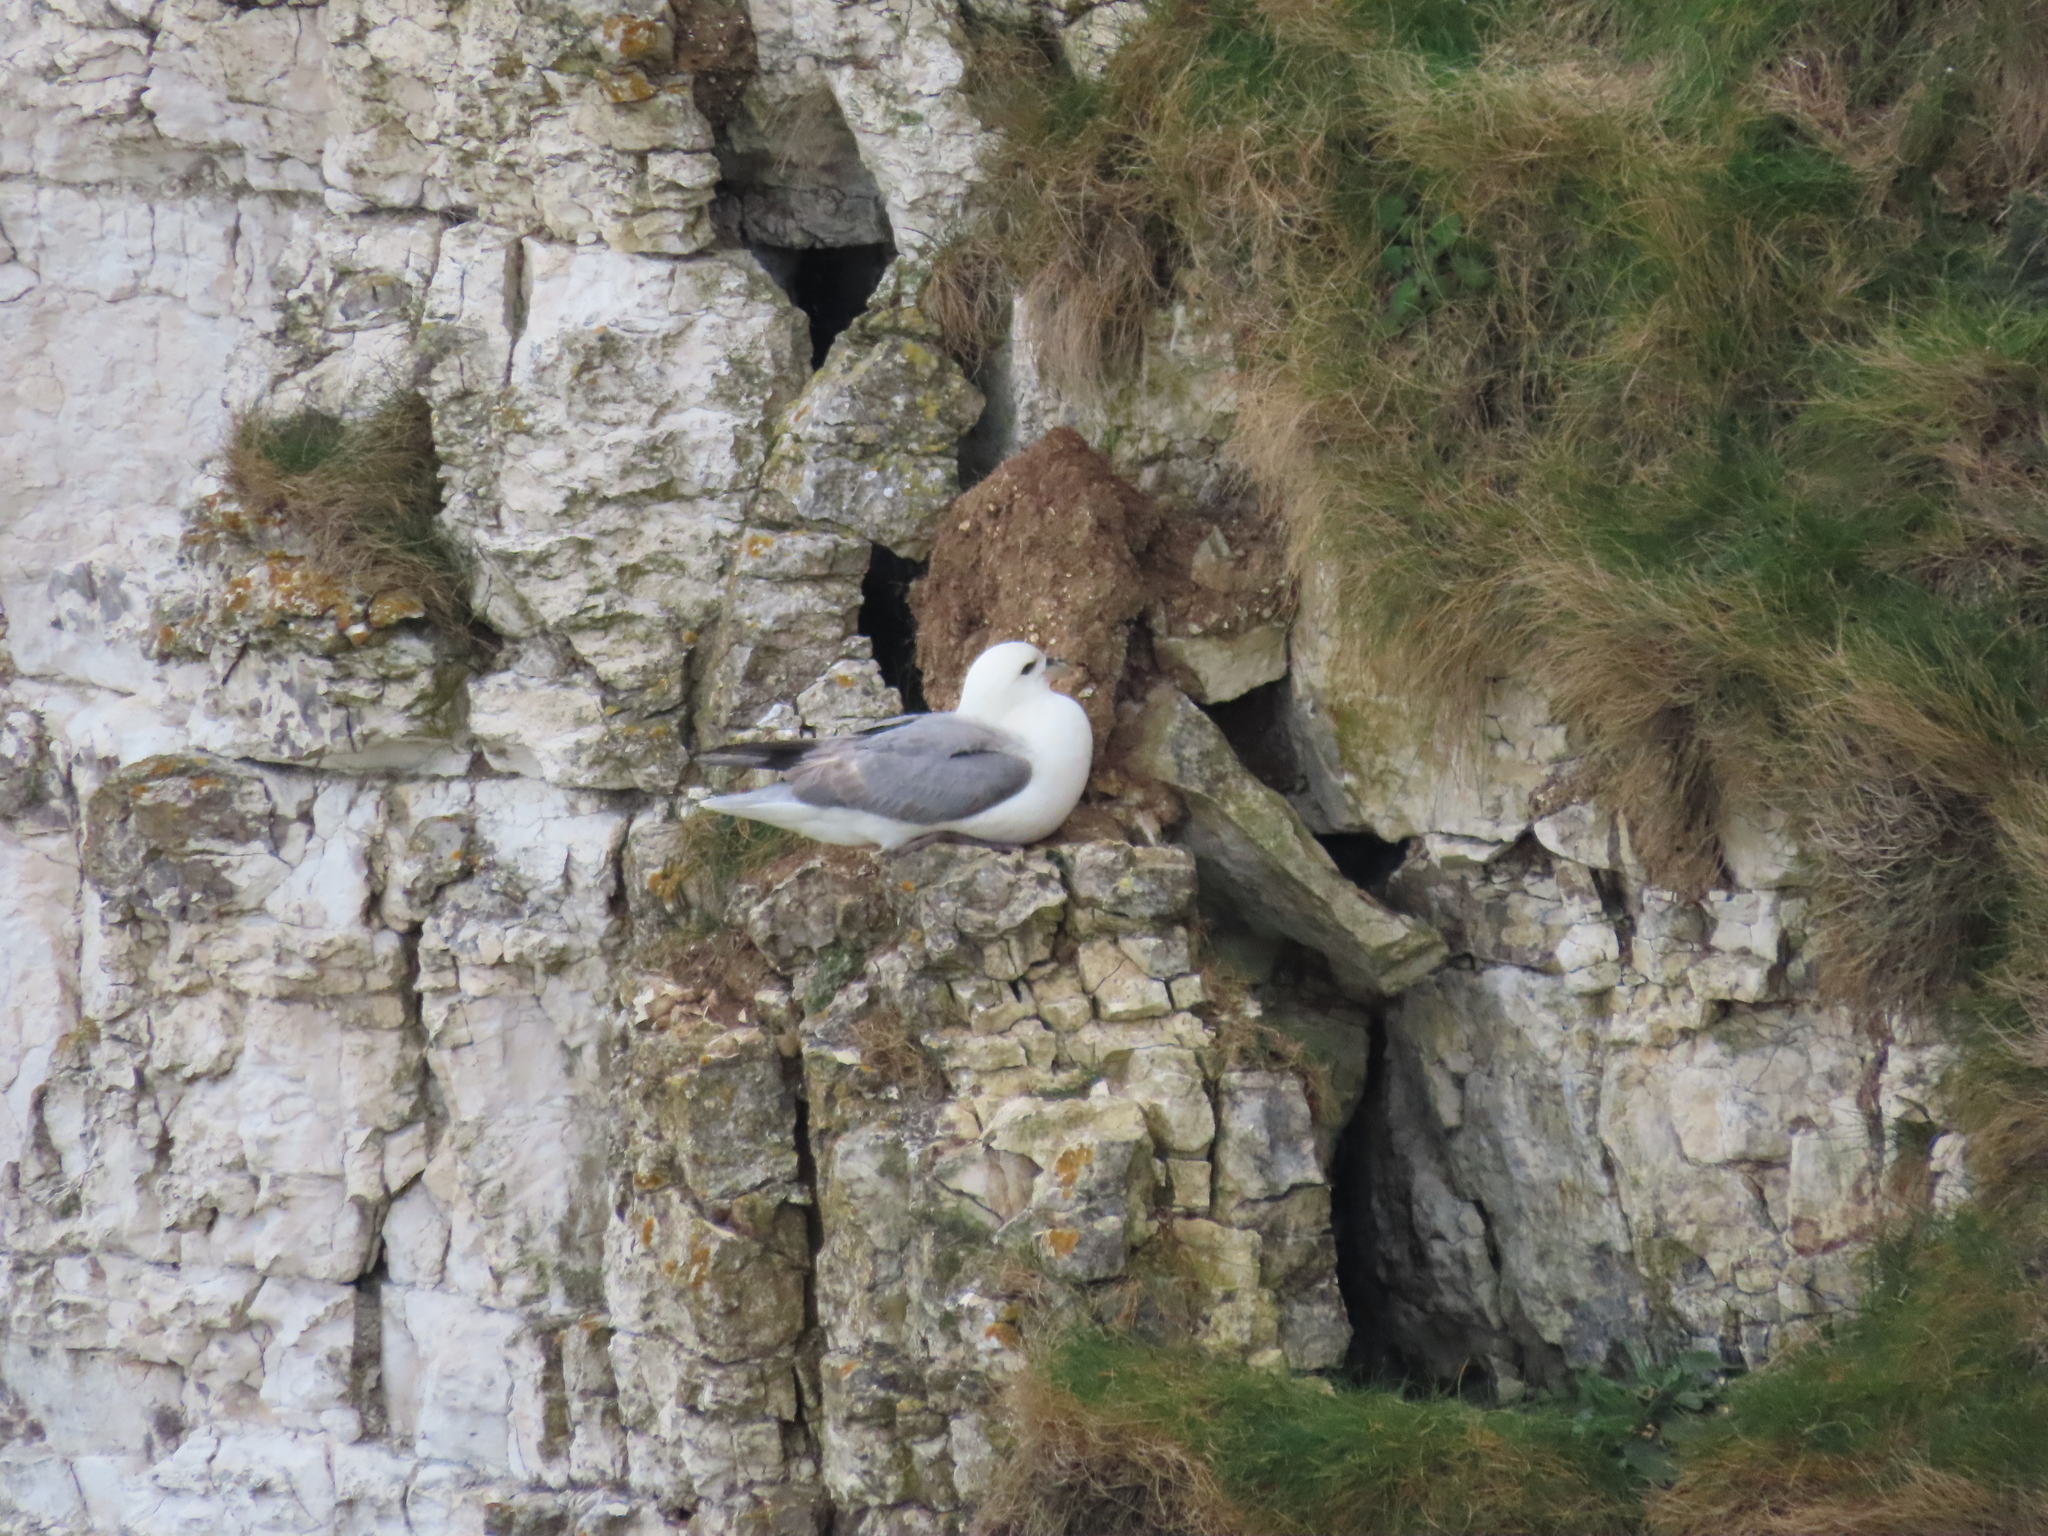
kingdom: Animalia
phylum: Chordata
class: Aves
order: Procellariiformes
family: Procellariidae
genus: Fulmarus
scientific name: Fulmarus glacialis
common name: Northern fulmar
